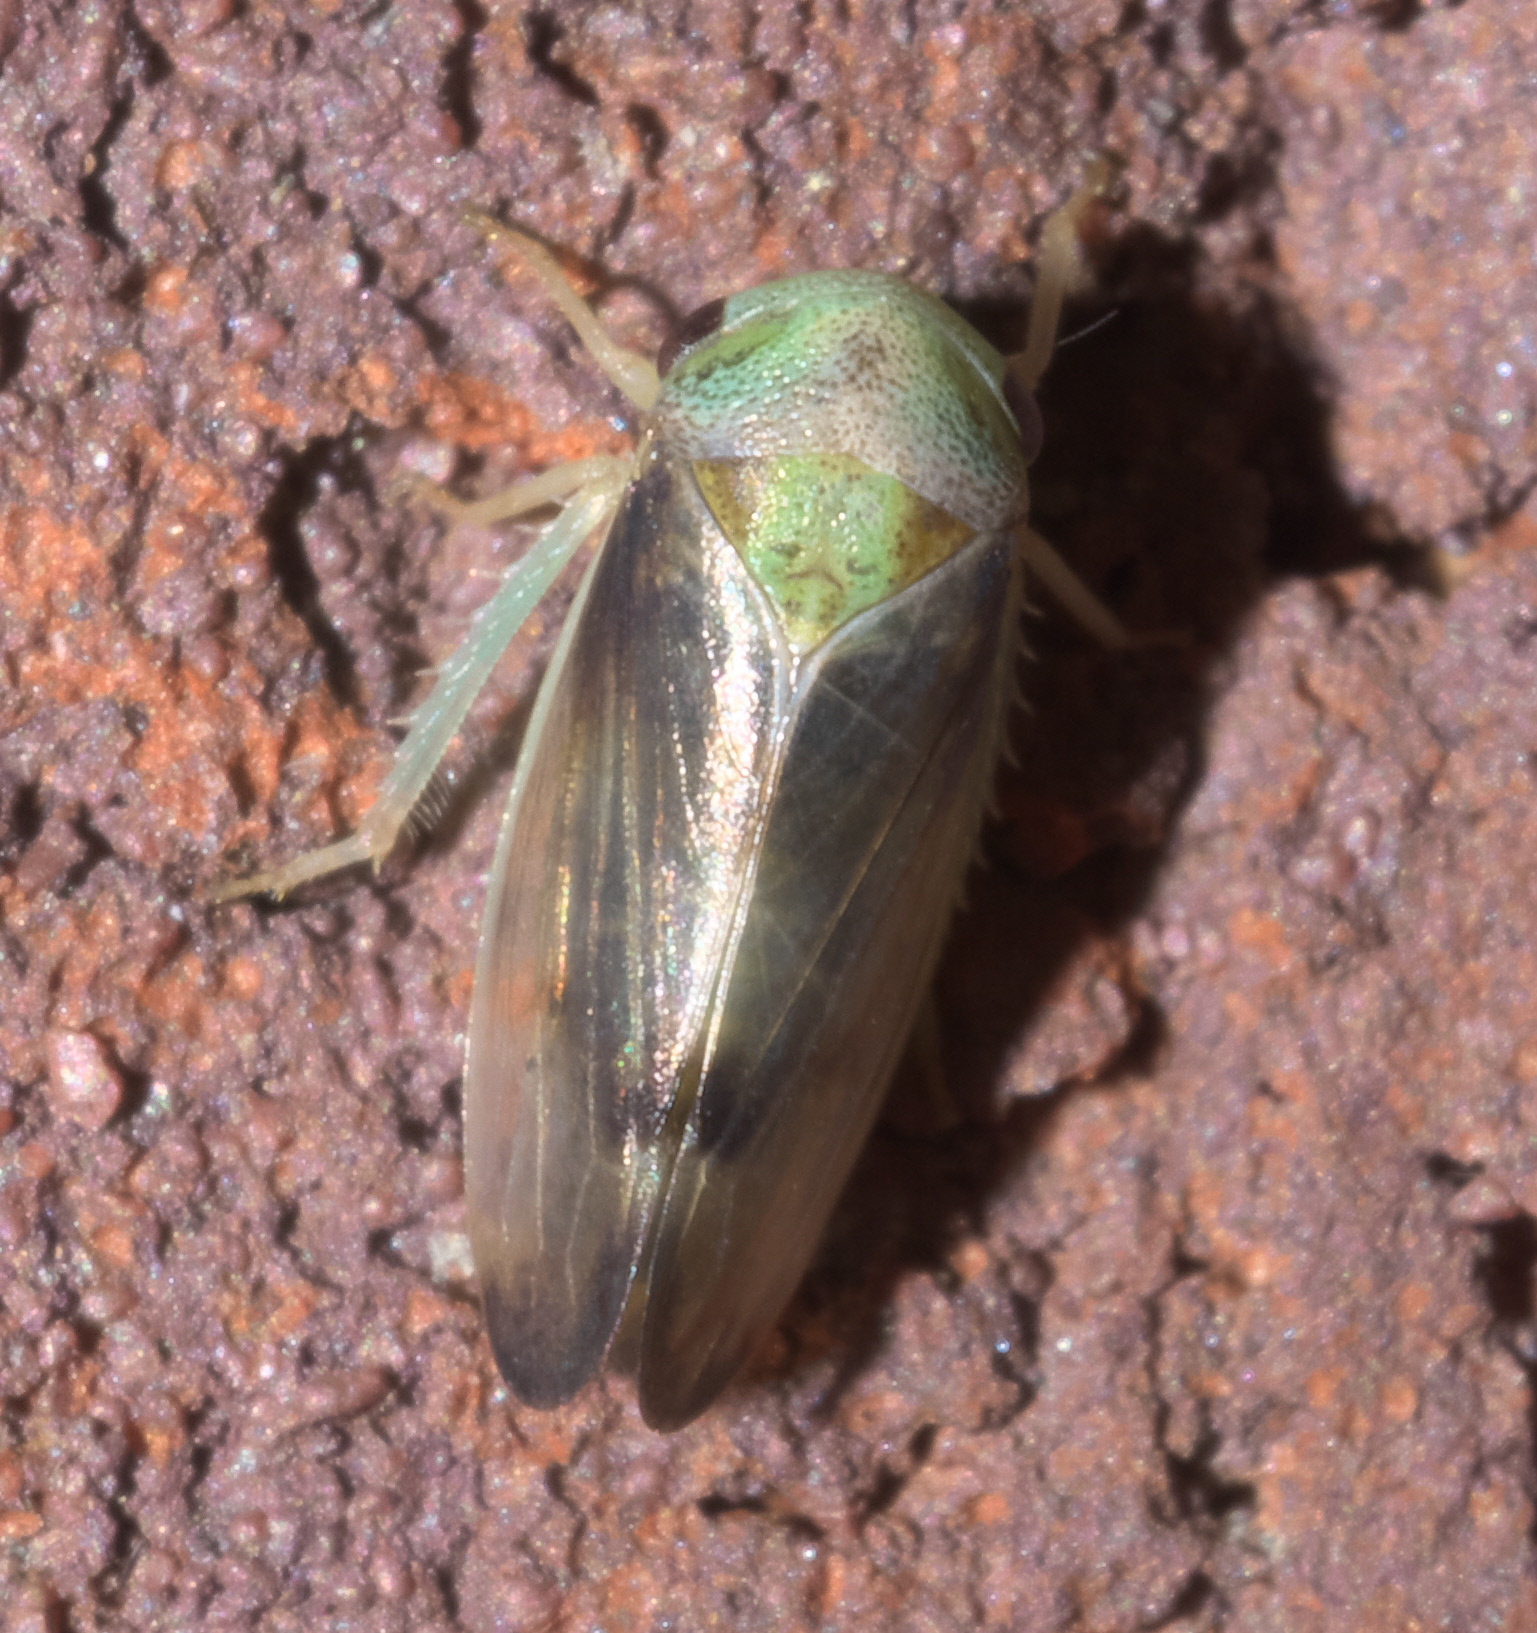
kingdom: Animalia
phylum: Arthropoda
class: Insecta
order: Hemiptera
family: Cicadellidae
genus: Pediopsoides
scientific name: Pediopsoides distinctus
